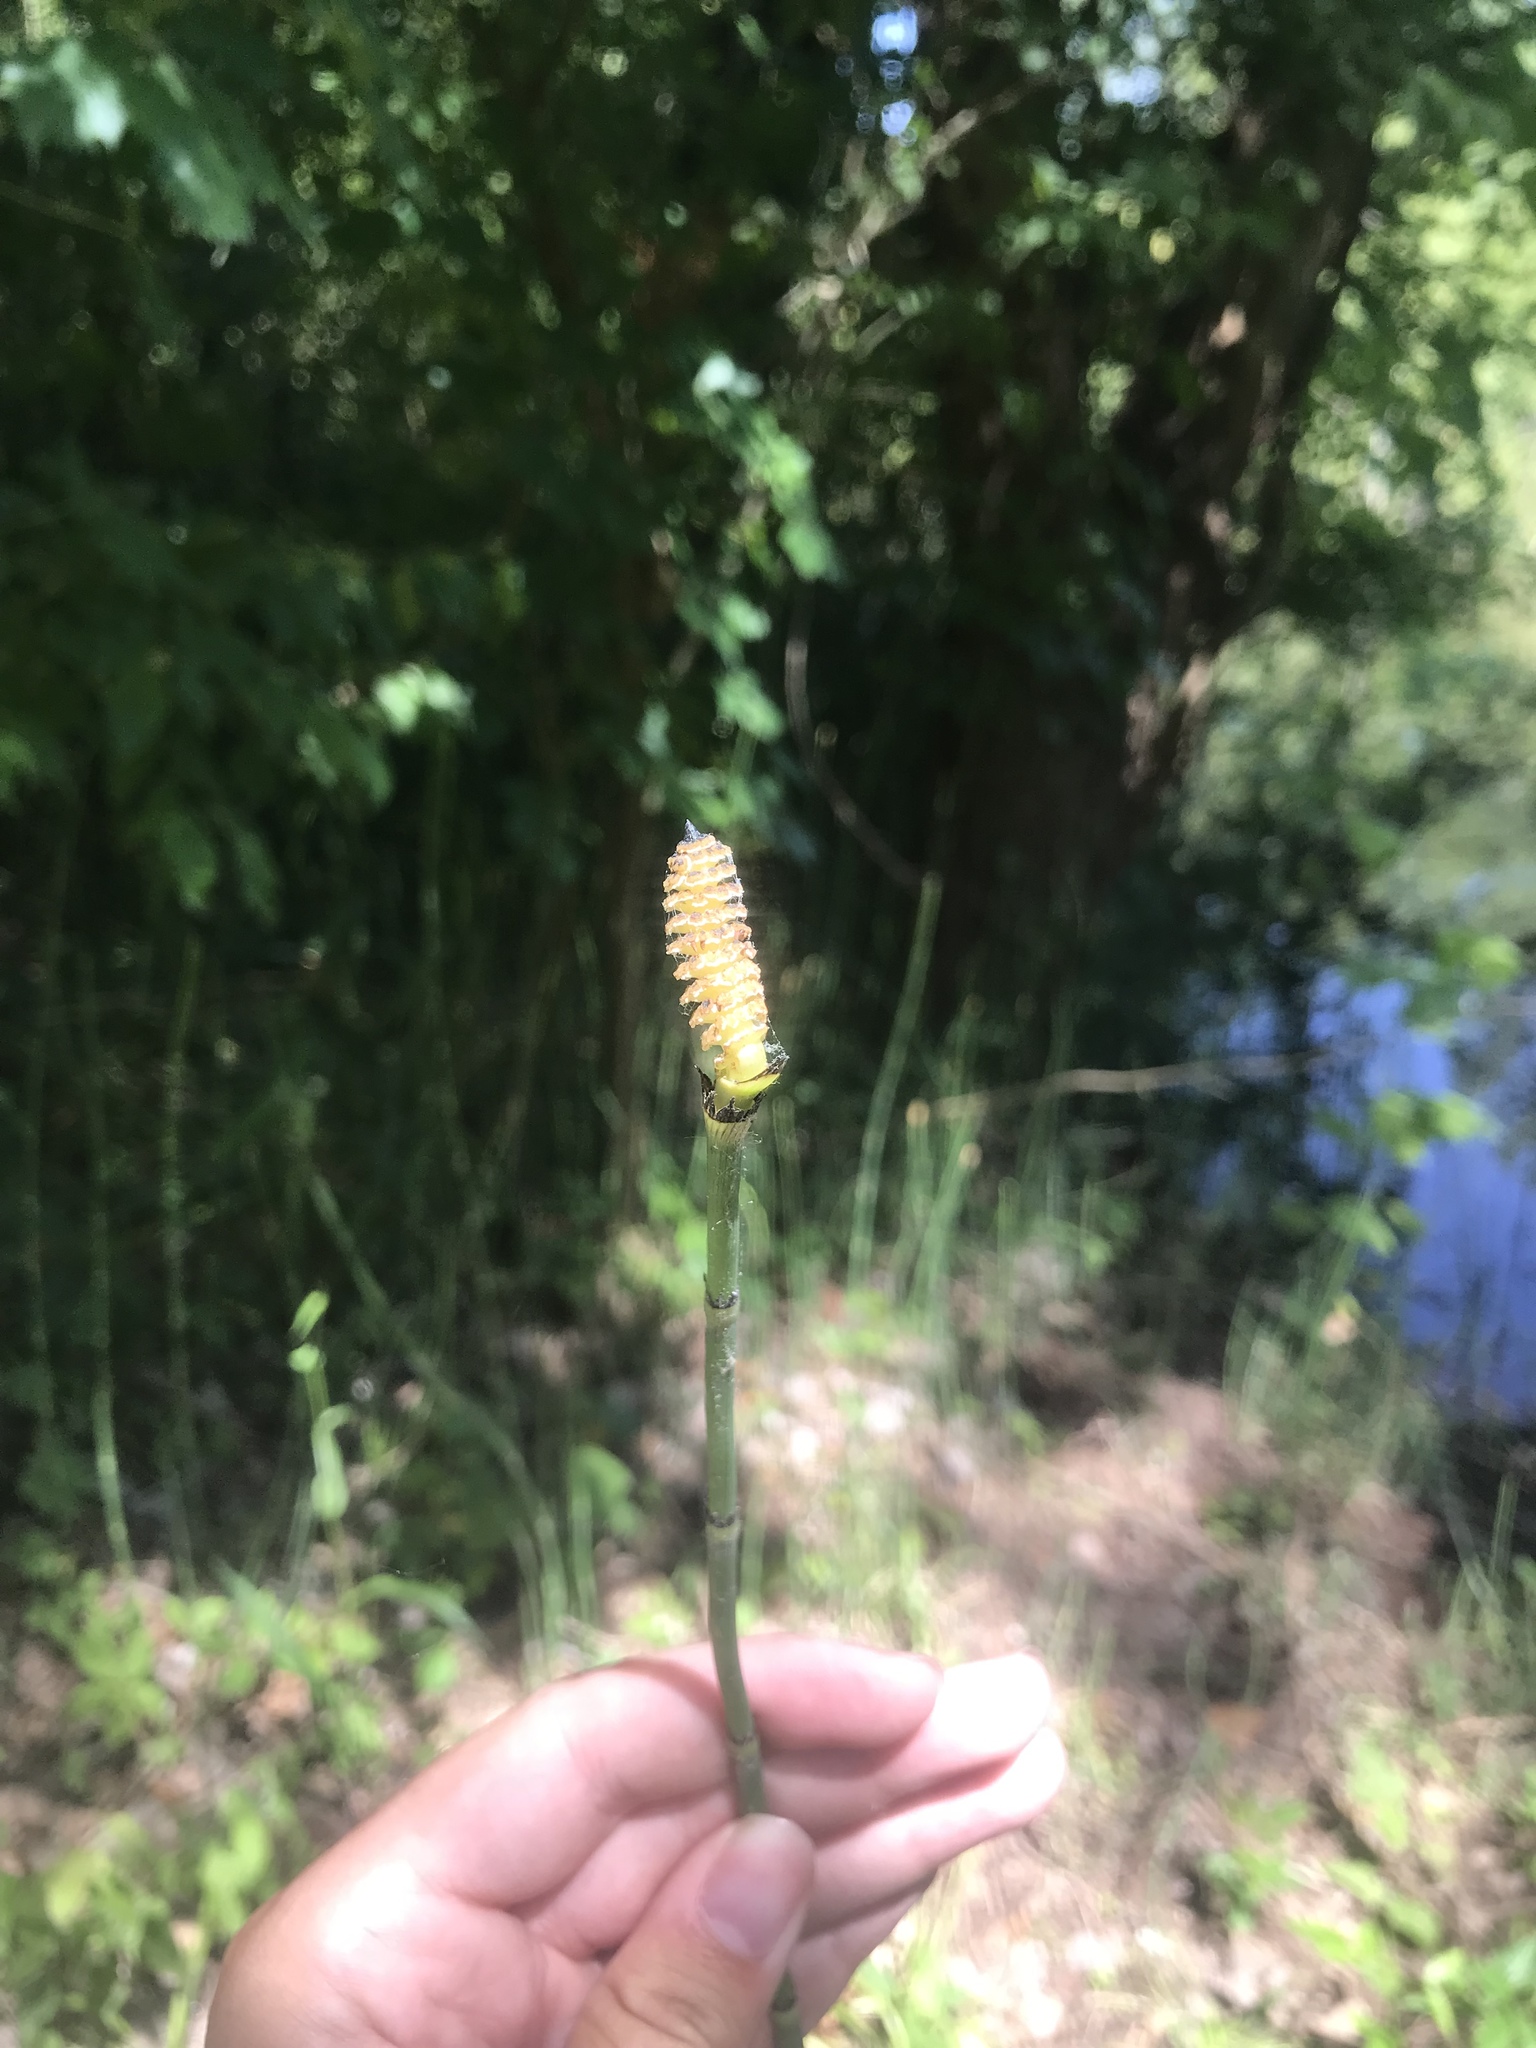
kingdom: Plantae
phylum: Tracheophyta
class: Polypodiopsida
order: Equisetales
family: Equisetaceae
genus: Equisetum
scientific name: Equisetum praealtum
